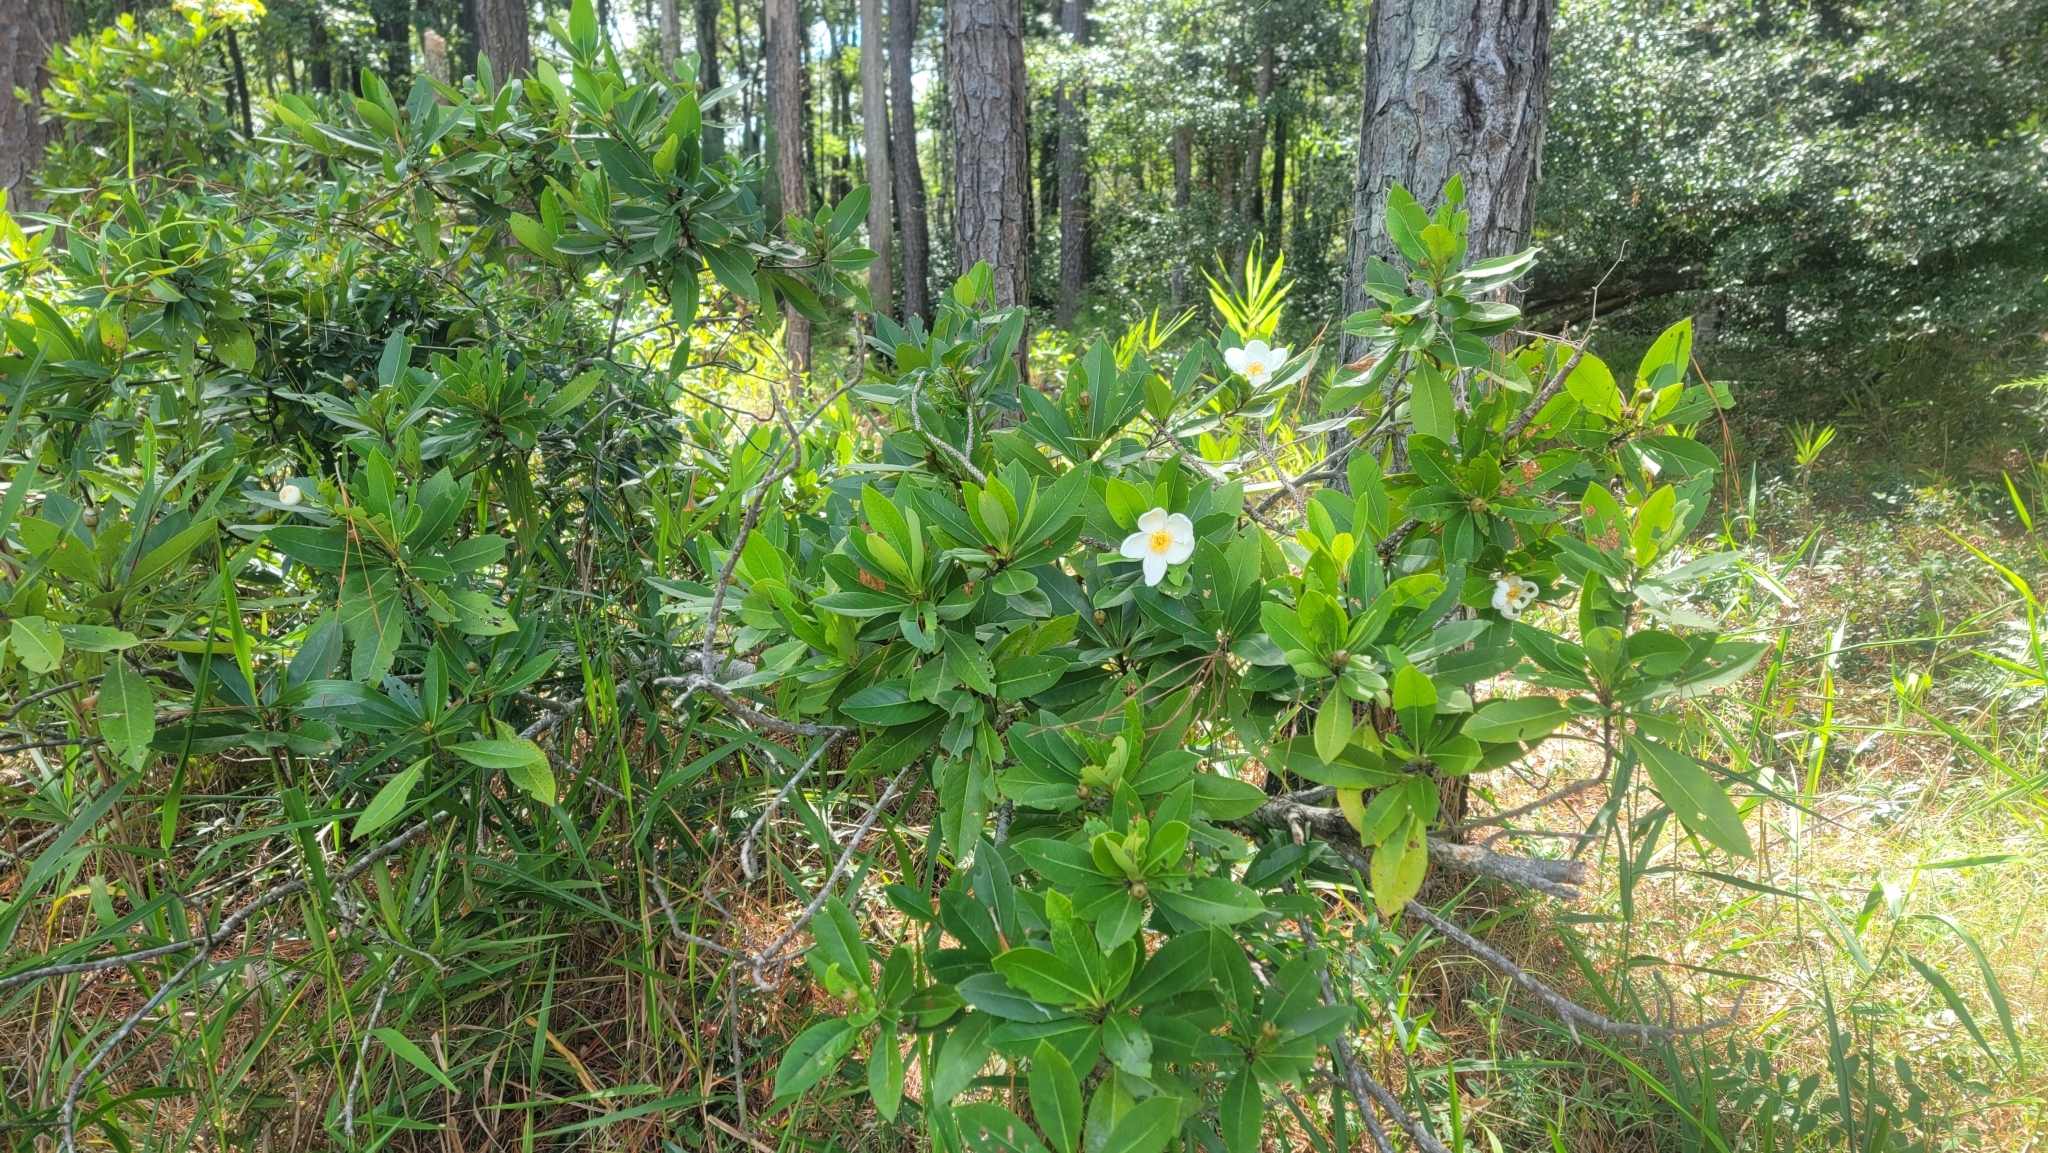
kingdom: Plantae
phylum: Tracheophyta
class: Magnoliopsida
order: Ericales
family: Theaceae
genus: Gordonia
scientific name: Gordonia lasianthus
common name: Loblolly bay
